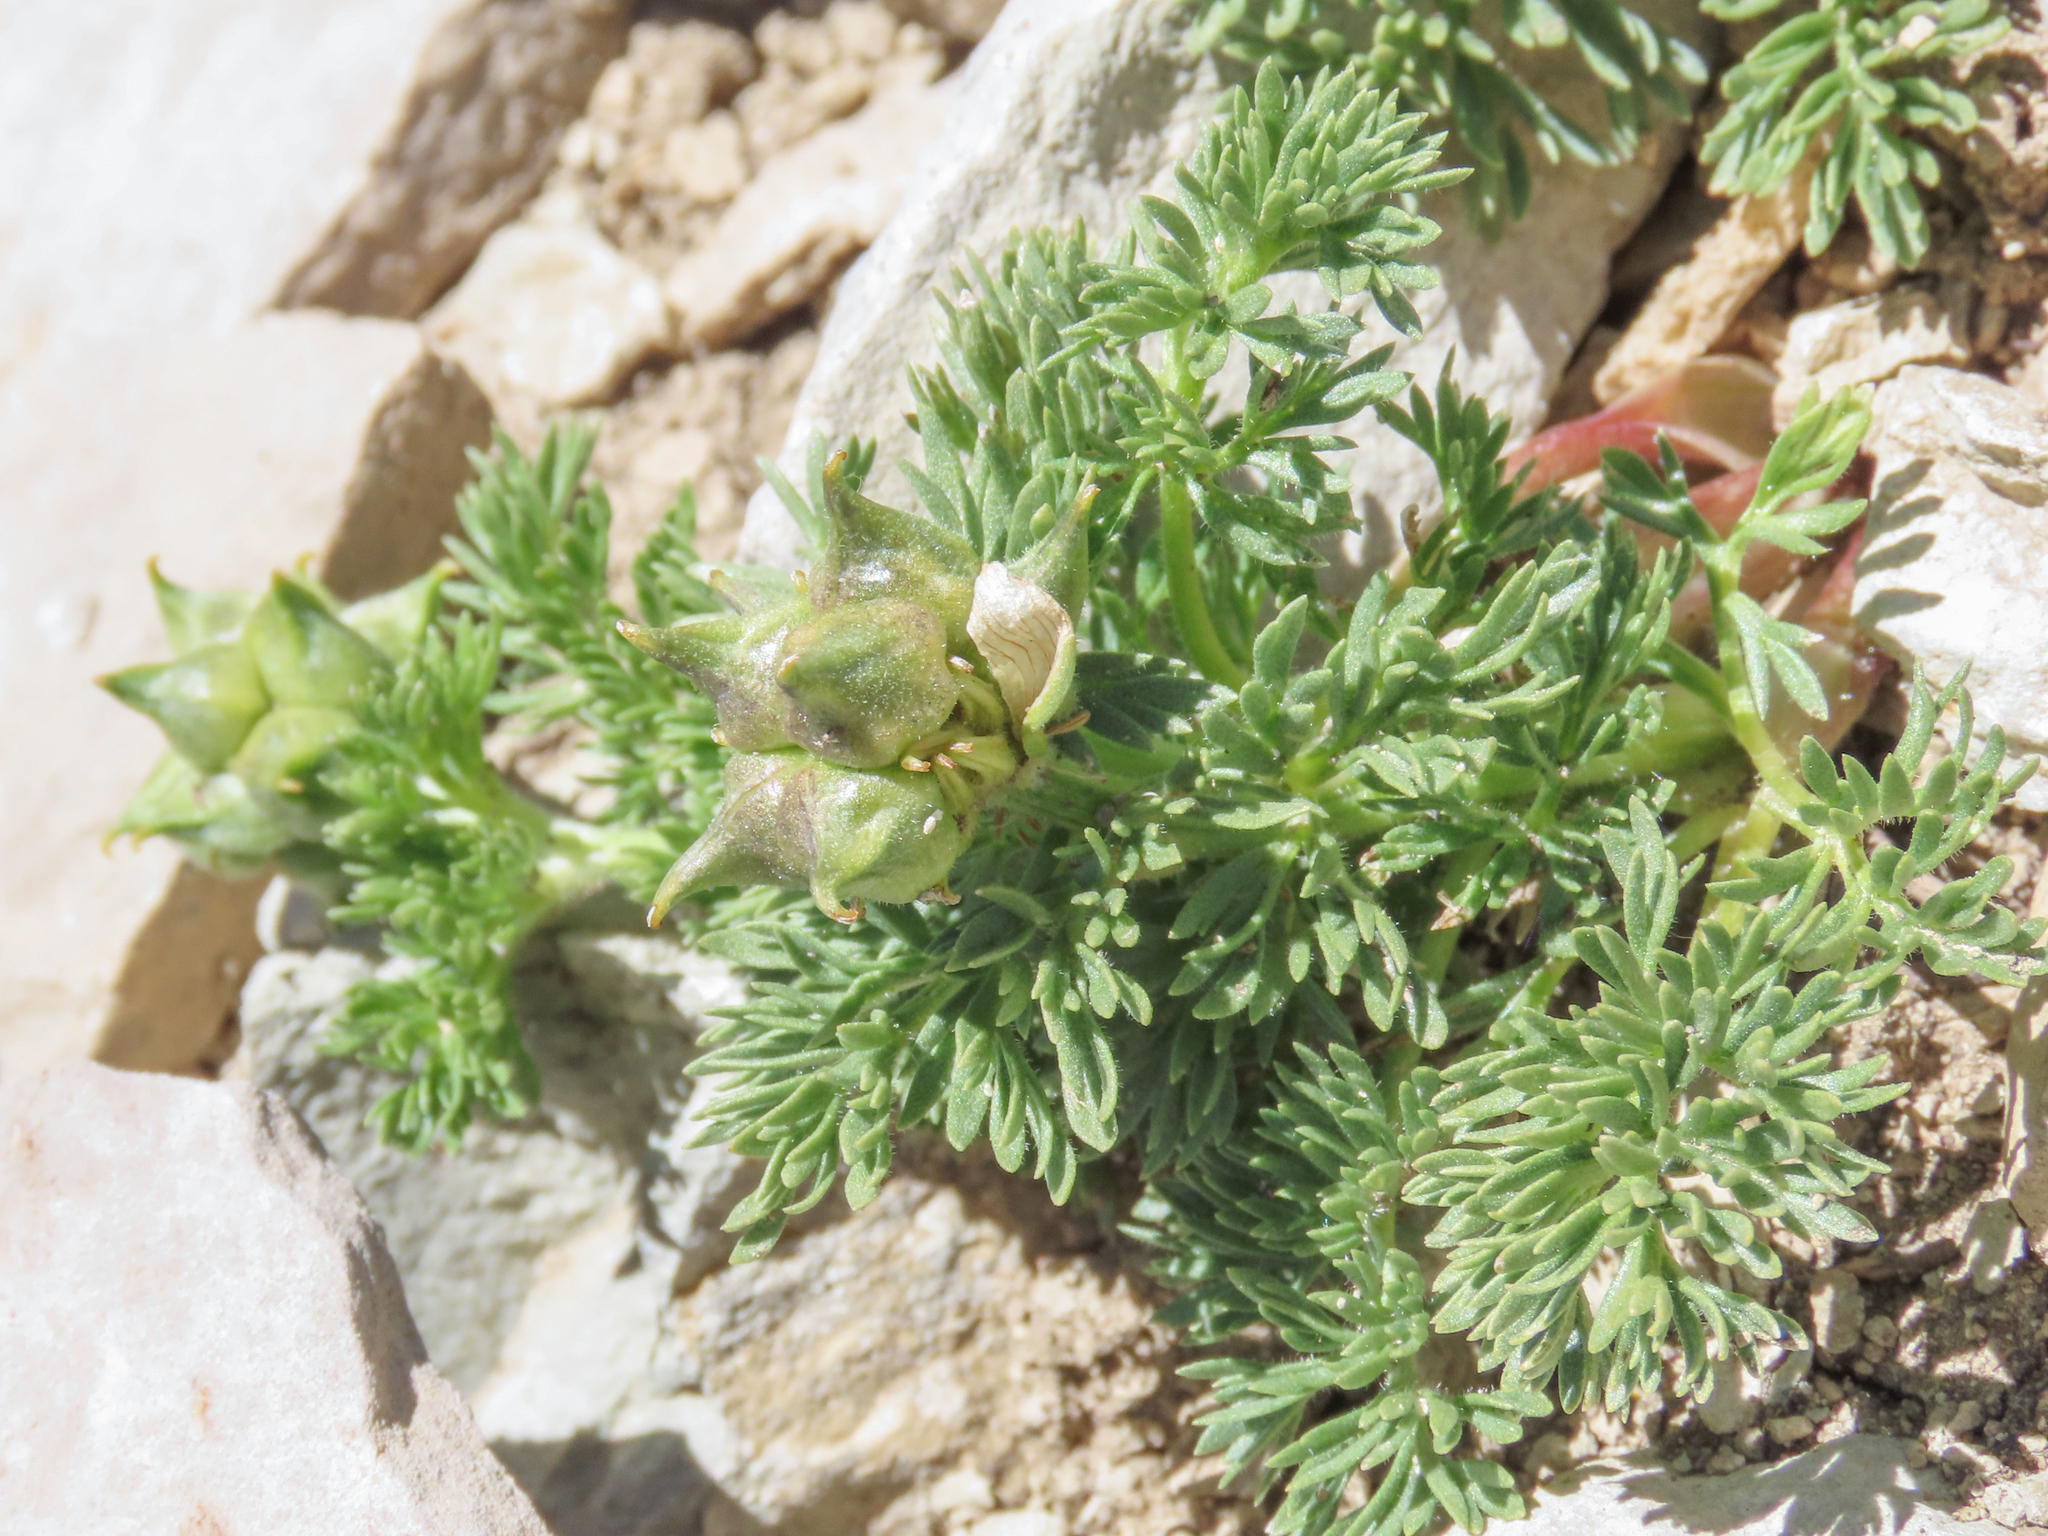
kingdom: Plantae
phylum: Tracheophyta
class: Magnoliopsida
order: Ranunculales
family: Ranunculaceae
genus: Adonis
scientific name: Adonis distorta
